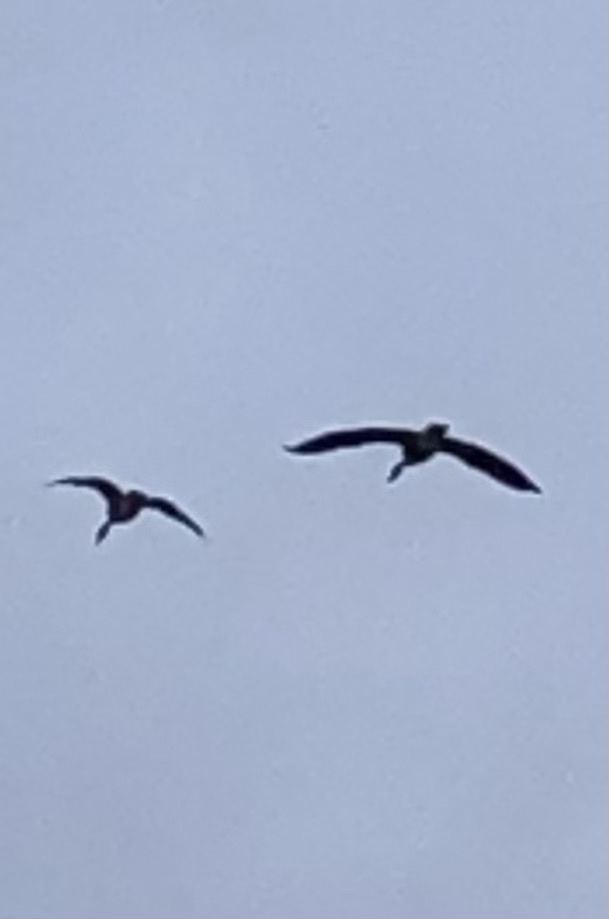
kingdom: Animalia
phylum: Chordata
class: Aves
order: Anseriformes
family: Anatidae
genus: Branta
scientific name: Branta canadensis
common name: Canada goose
